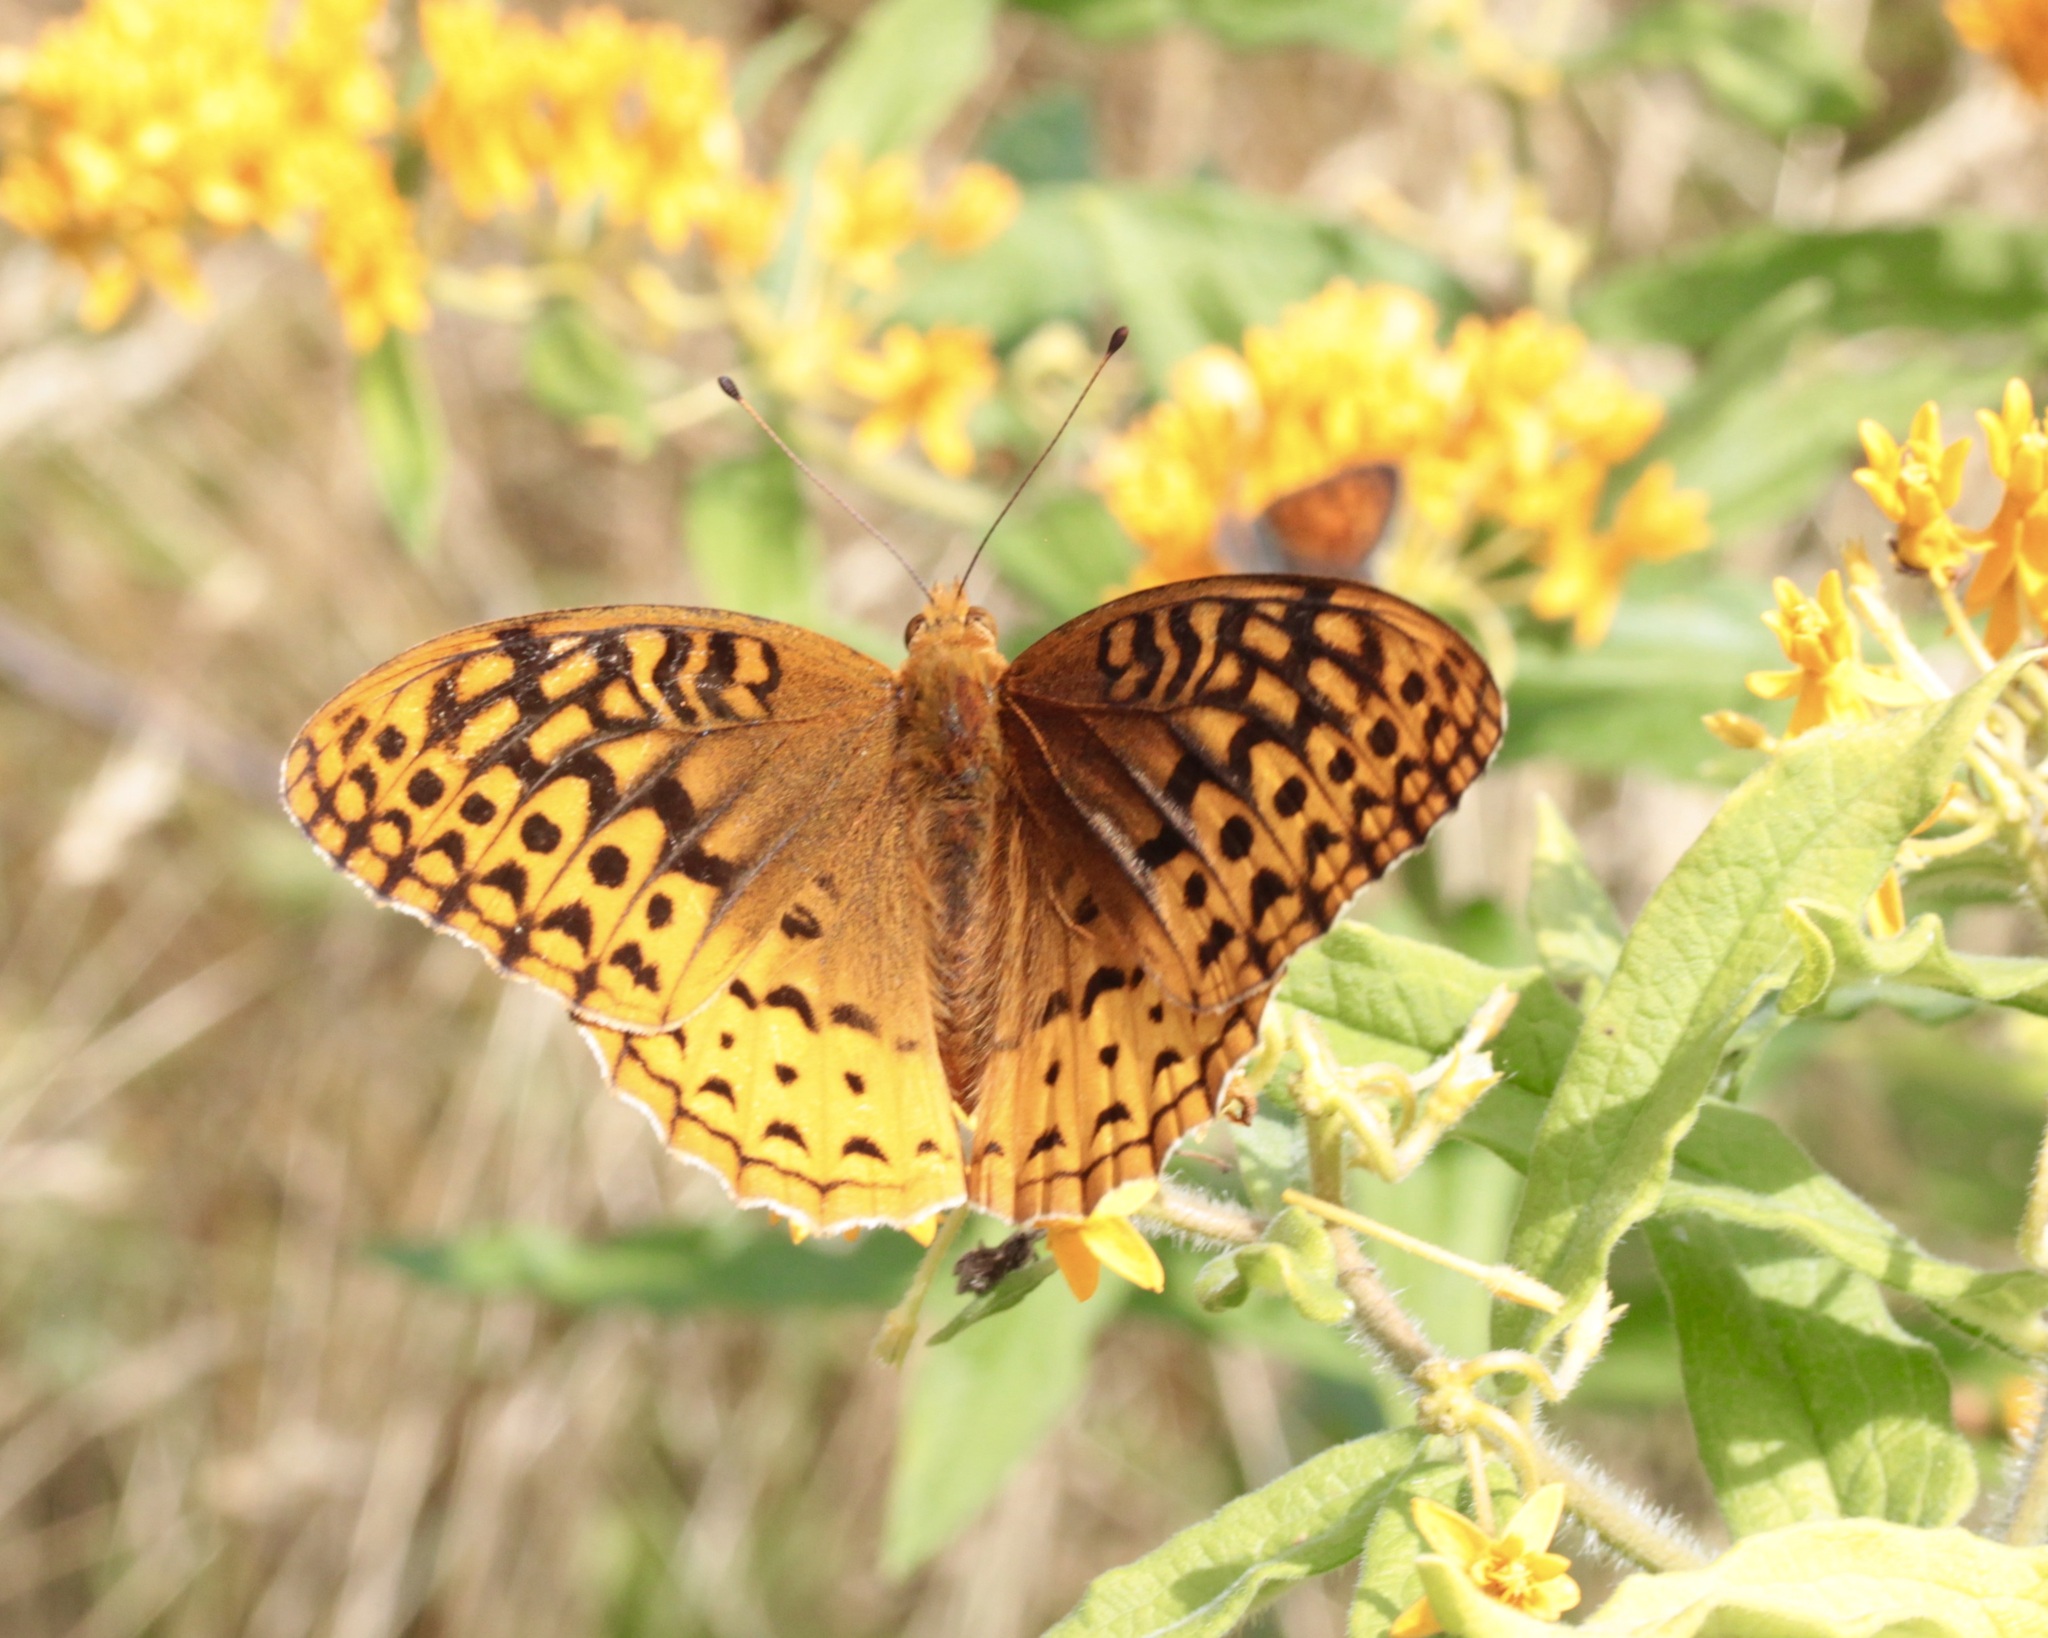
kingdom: Animalia
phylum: Arthropoda
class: Insecta
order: Lepidoptera
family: Nymphalidae
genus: Speyeria
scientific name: Speyeria cybele
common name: Great spangled fritillary
